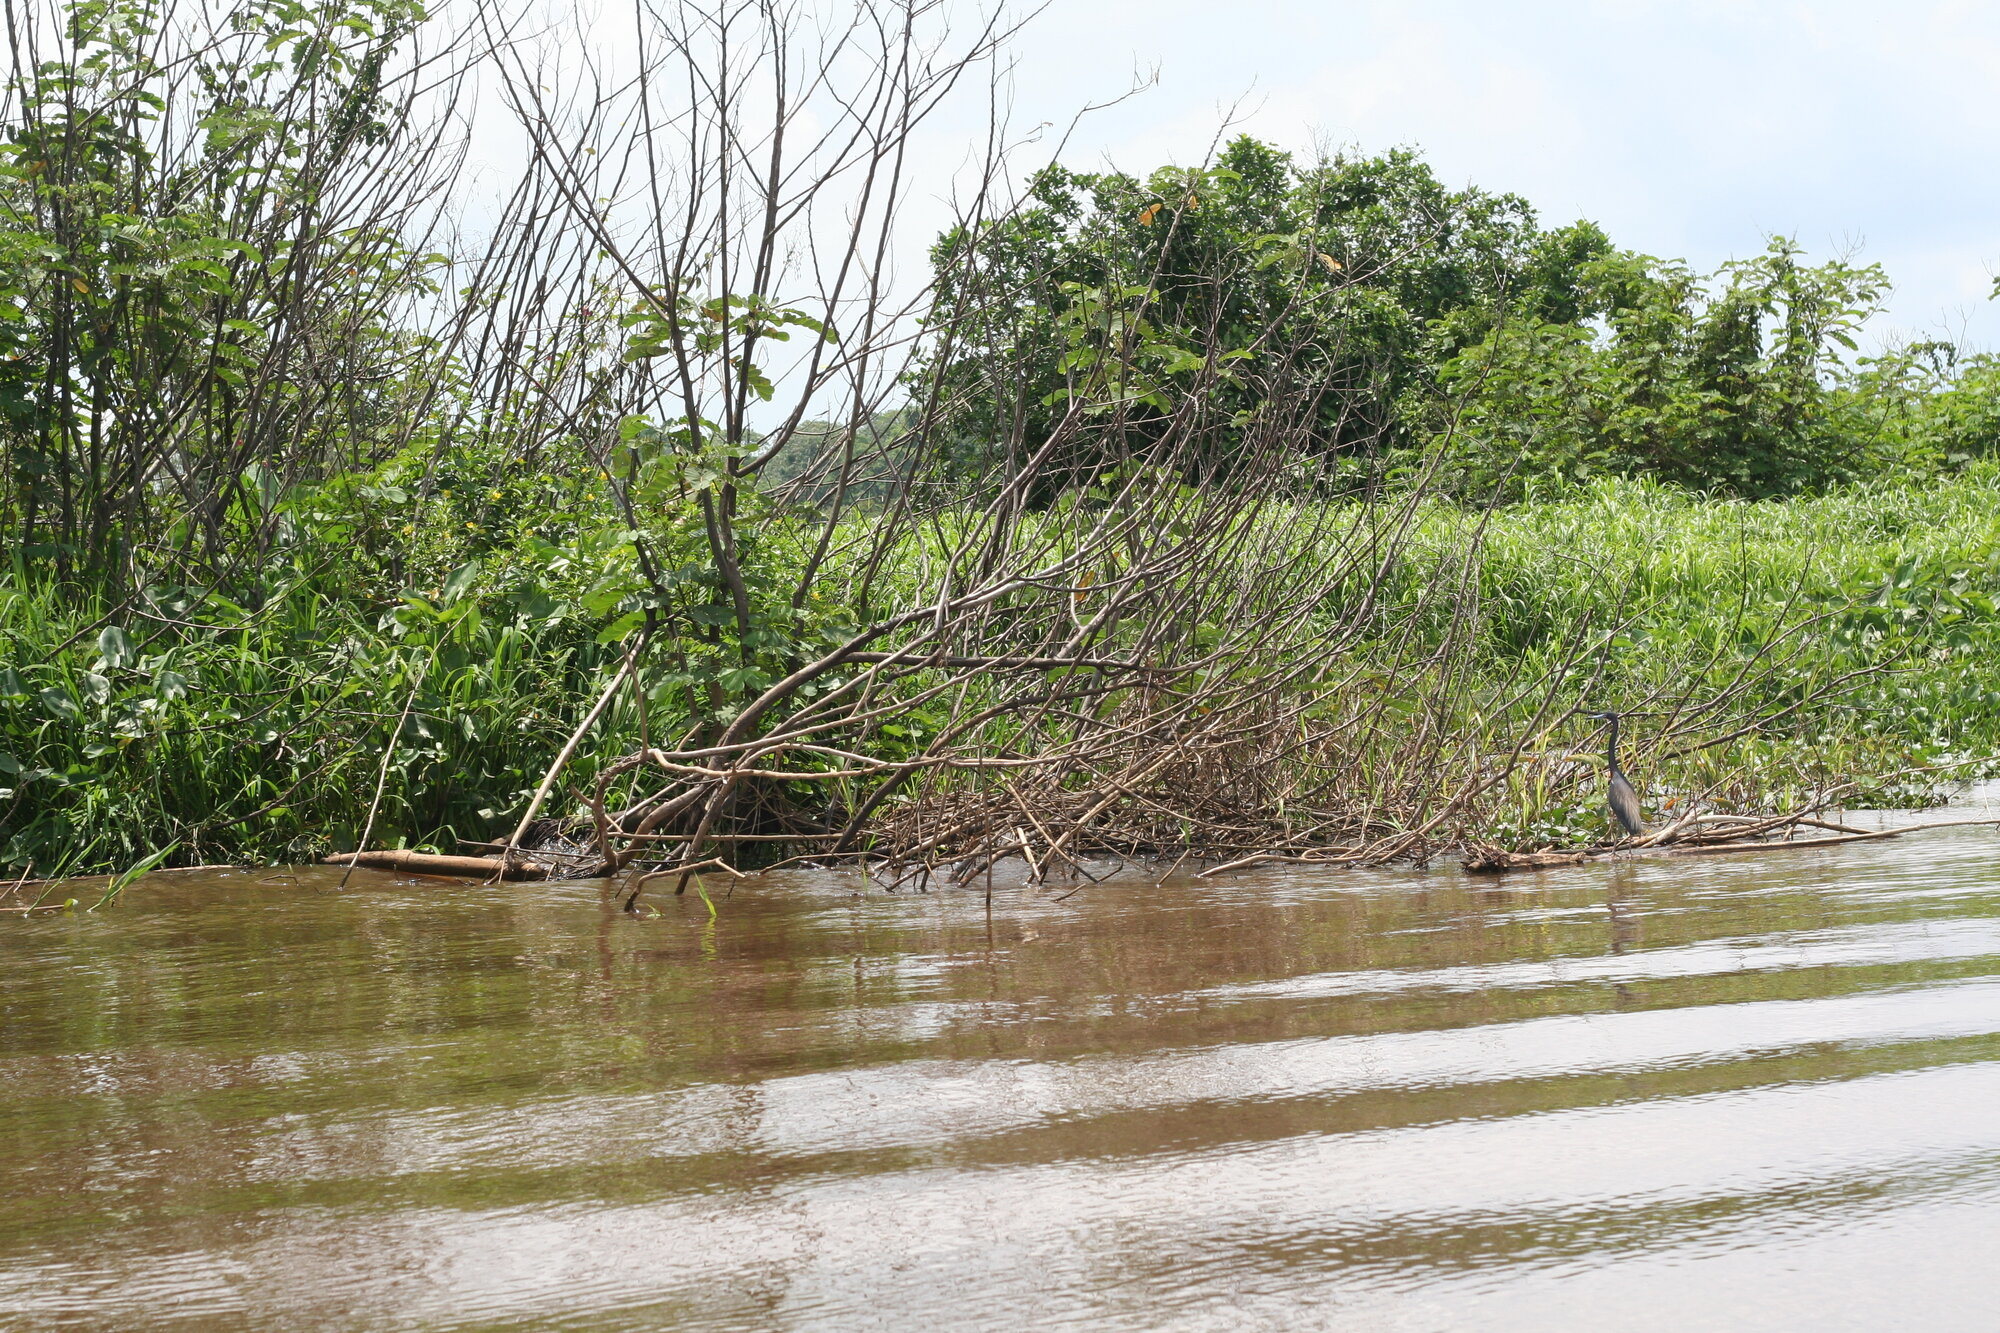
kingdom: Animalia
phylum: Chordata
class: Aves
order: Pelecaniformes
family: Ardeidae
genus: Egretta
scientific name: Egretta tricolor
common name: Tricolored heron
